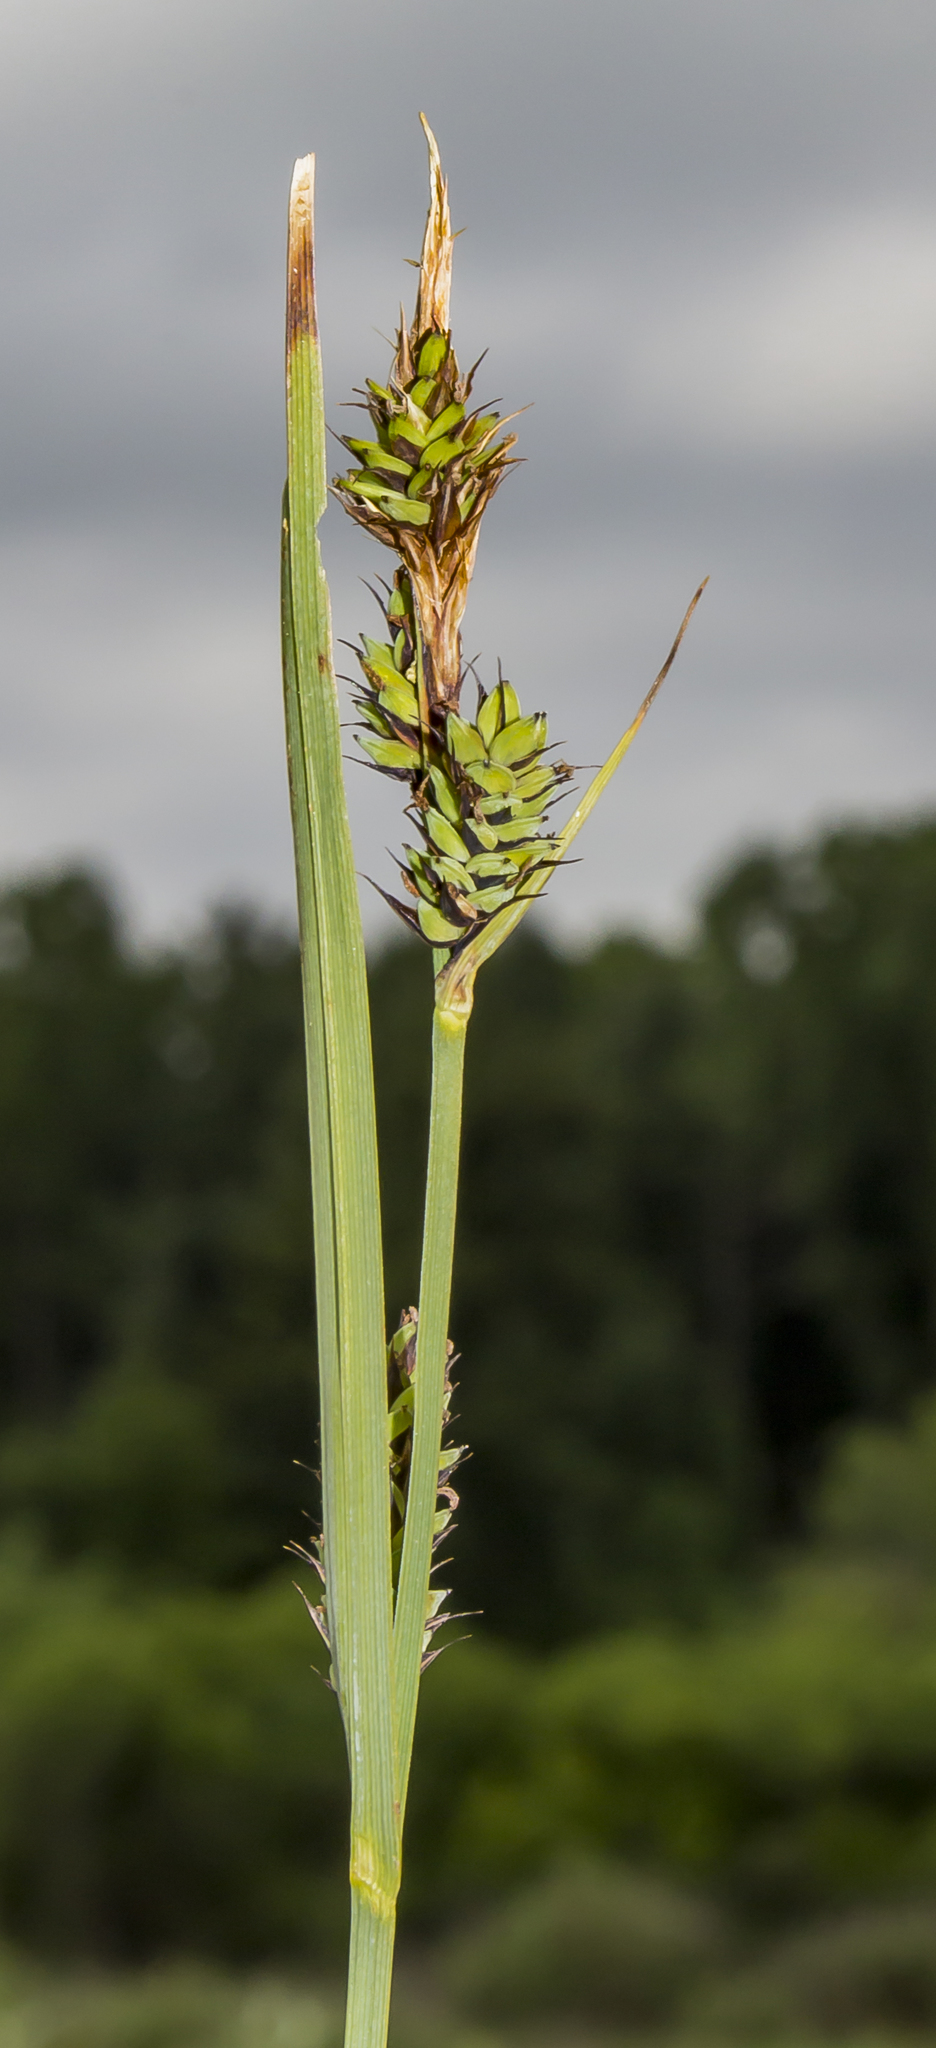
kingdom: Plantae
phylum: Tracheophyta
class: Liliopsida
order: Poales
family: Cyperaceae
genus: Carex
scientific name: Carex buxbaumii
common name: Club sedge
